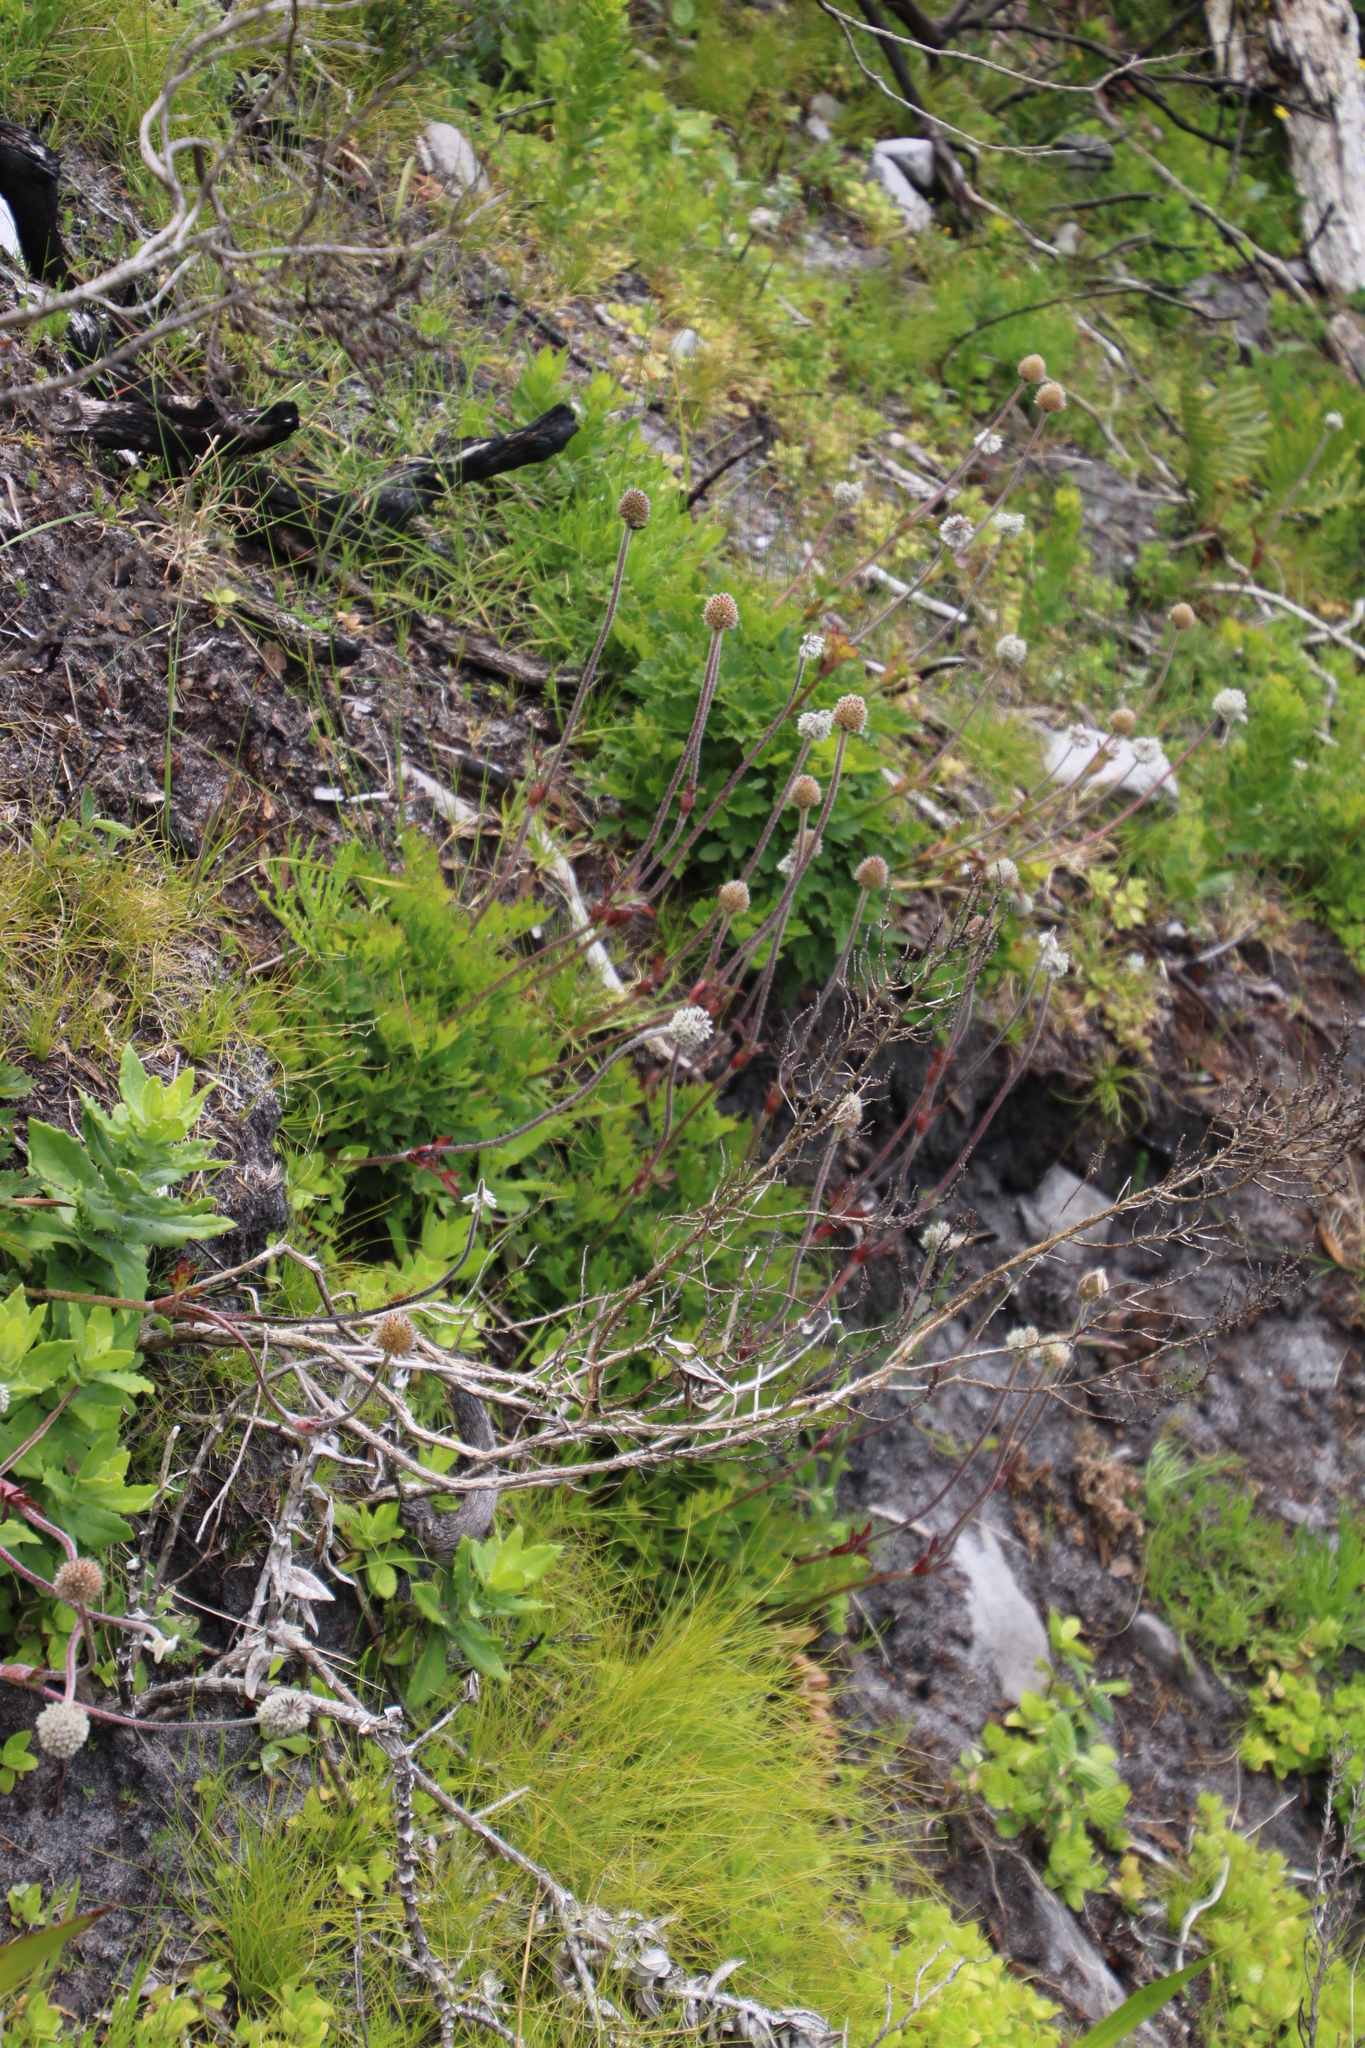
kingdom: Plantae
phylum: Tracheophyta
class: Magnoliopsida
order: Ranunculales
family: Ranunculaceae
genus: Knowltonia
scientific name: Knowltonia tenuifolia
